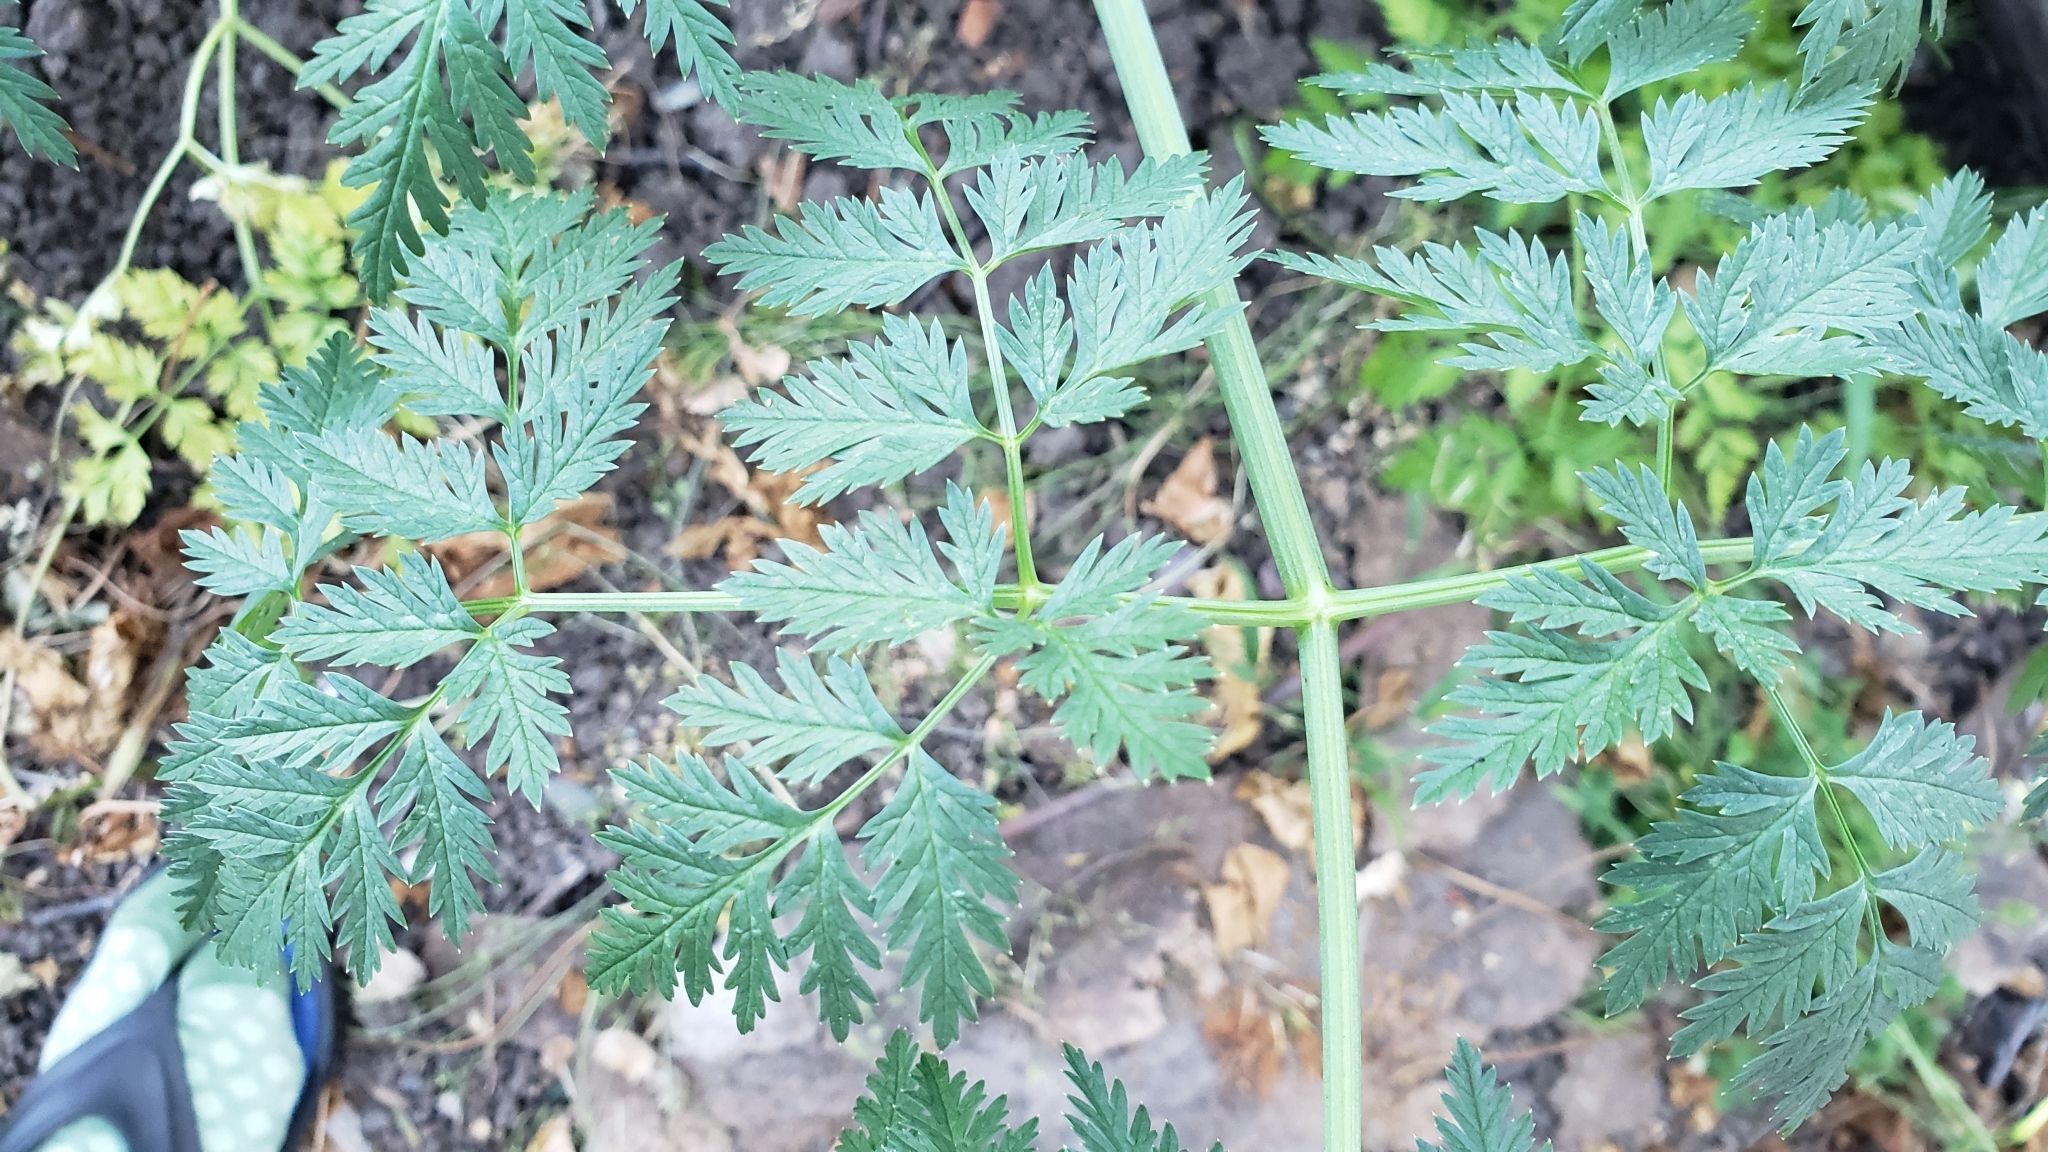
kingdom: Plantae
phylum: Tracheophyta
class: Magnoliopsida
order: Apiales
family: Apiaceae
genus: Conium
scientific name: Conium maculatum
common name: Hemlock
